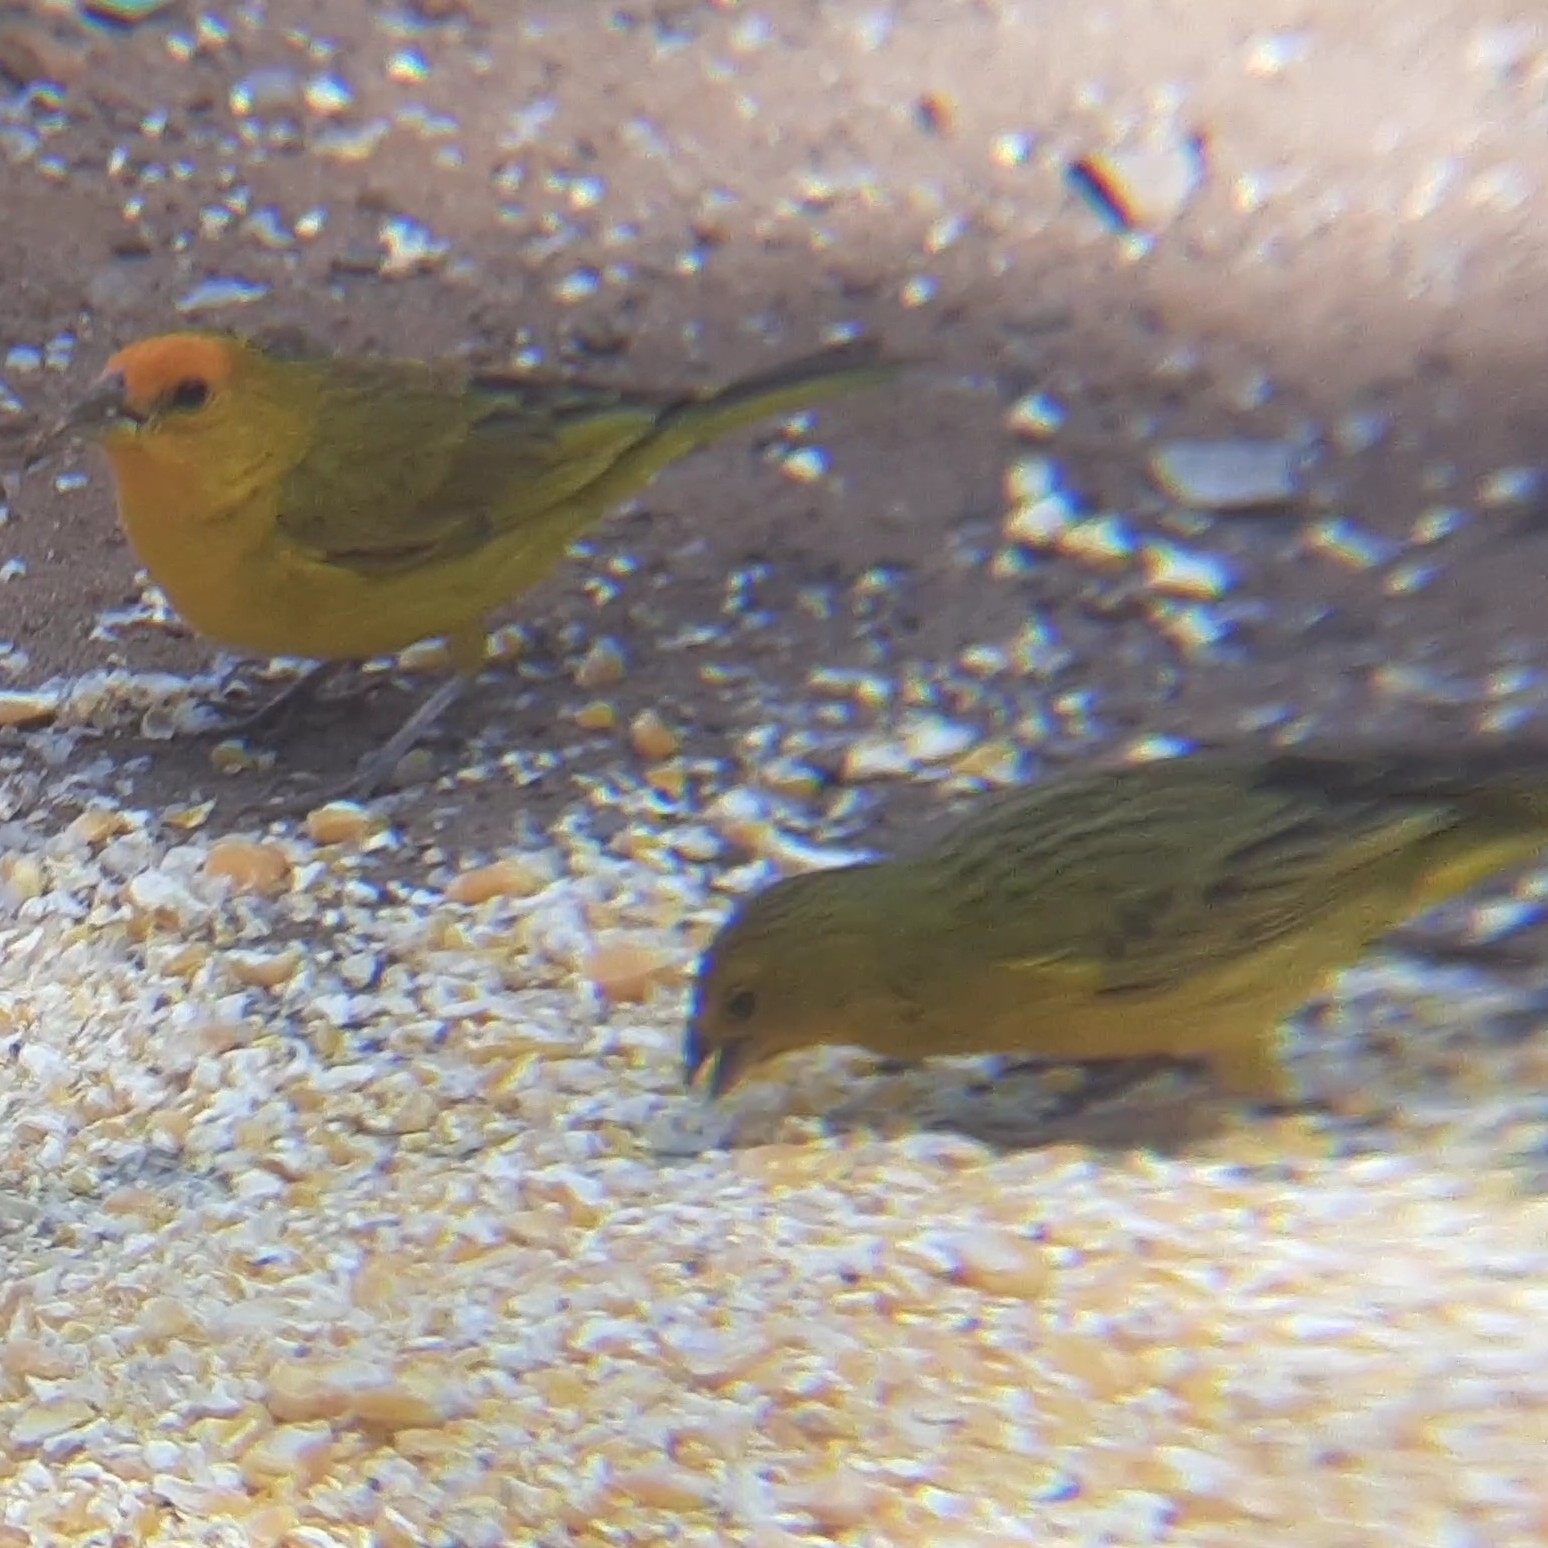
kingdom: Animalia
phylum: Chordata
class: Aves
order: Passeriformes
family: Thraupidae
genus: Sicalis
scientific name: Sicalis flaveola
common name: Saffron finch
